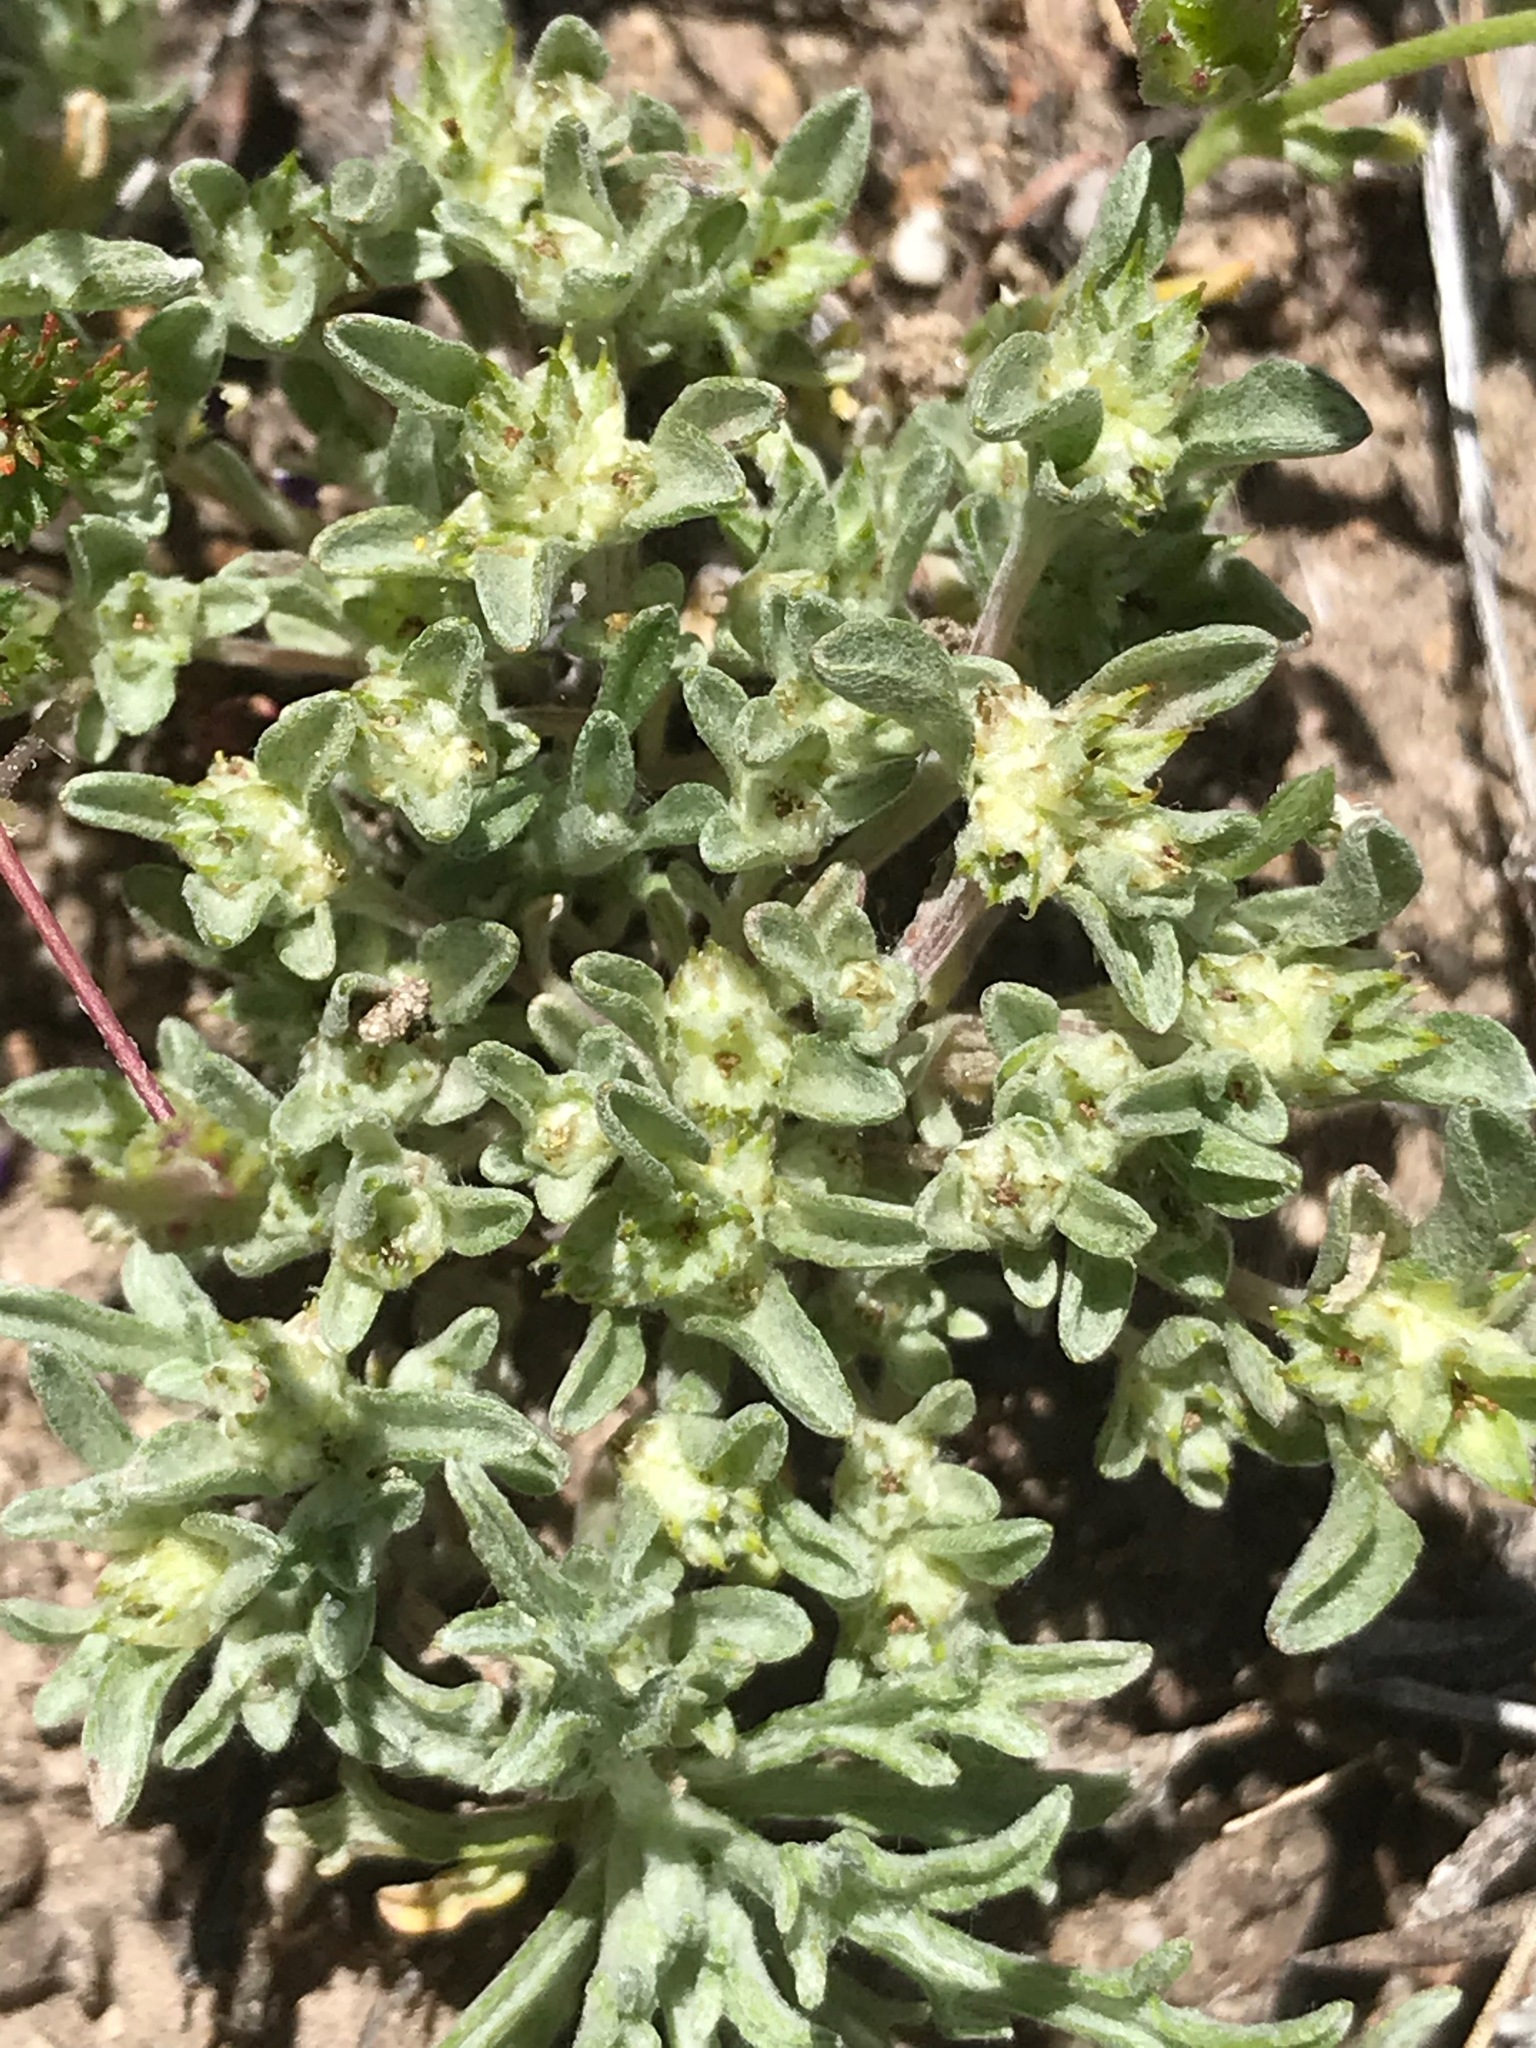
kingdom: Plantae
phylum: Tracheophyta
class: Magnoliopsida
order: Asterales
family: Asteraceae
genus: Ancistrocarphus
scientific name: Ancistrocarphus filagineus
